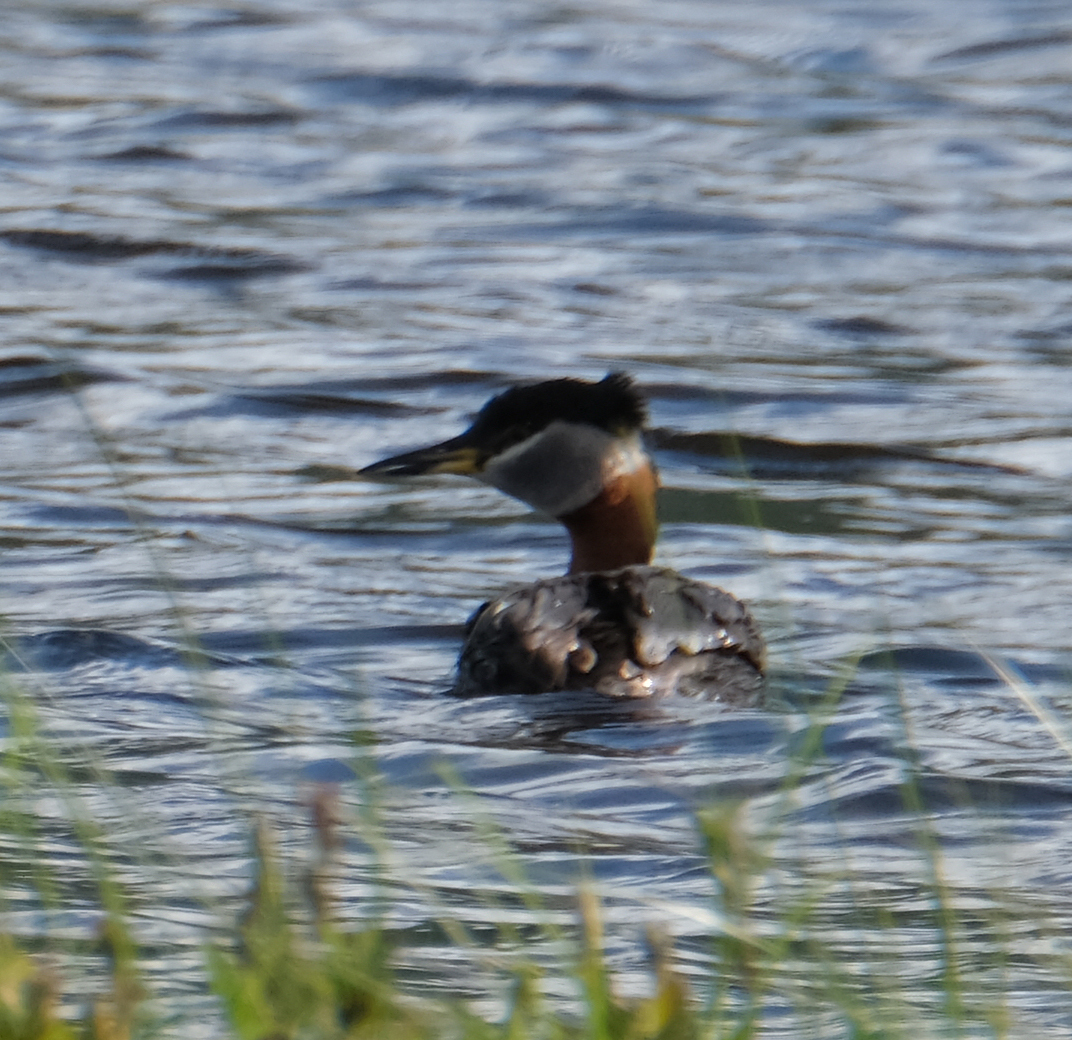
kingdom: Animalia
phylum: Chordata
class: Aves
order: Podicipediformes
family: Podicipedidae
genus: Podiceps
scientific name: Podiceps grisegena
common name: Red-necked grebe
